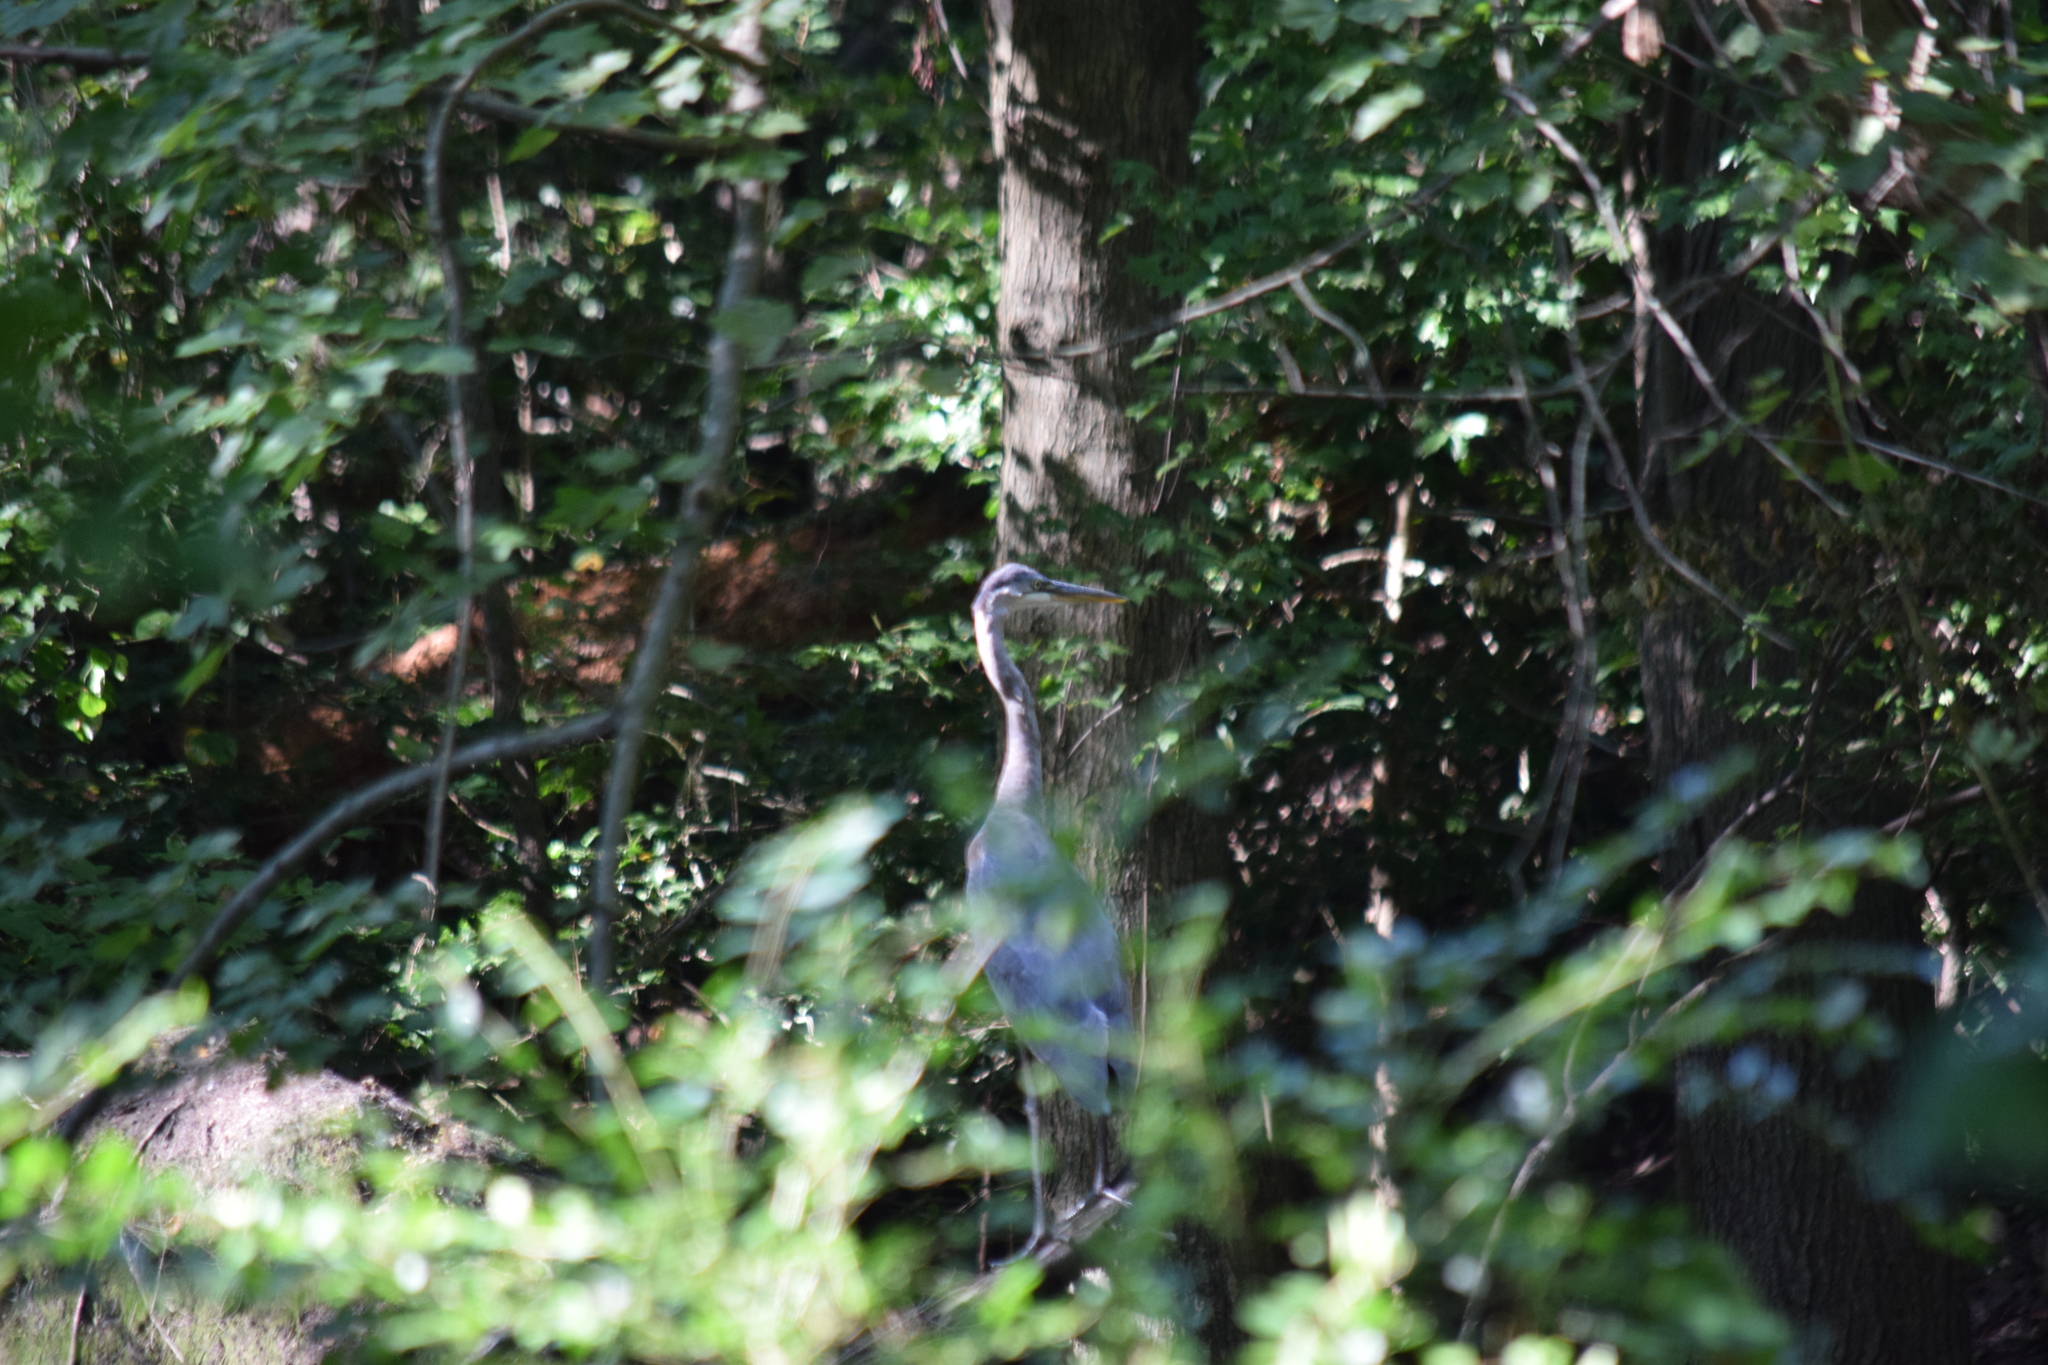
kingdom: Animalia
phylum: Chordata
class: Aves
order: Pelecaniformes
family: Ardeidae
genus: Ardea
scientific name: Ardea herodias
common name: Great blue heron
